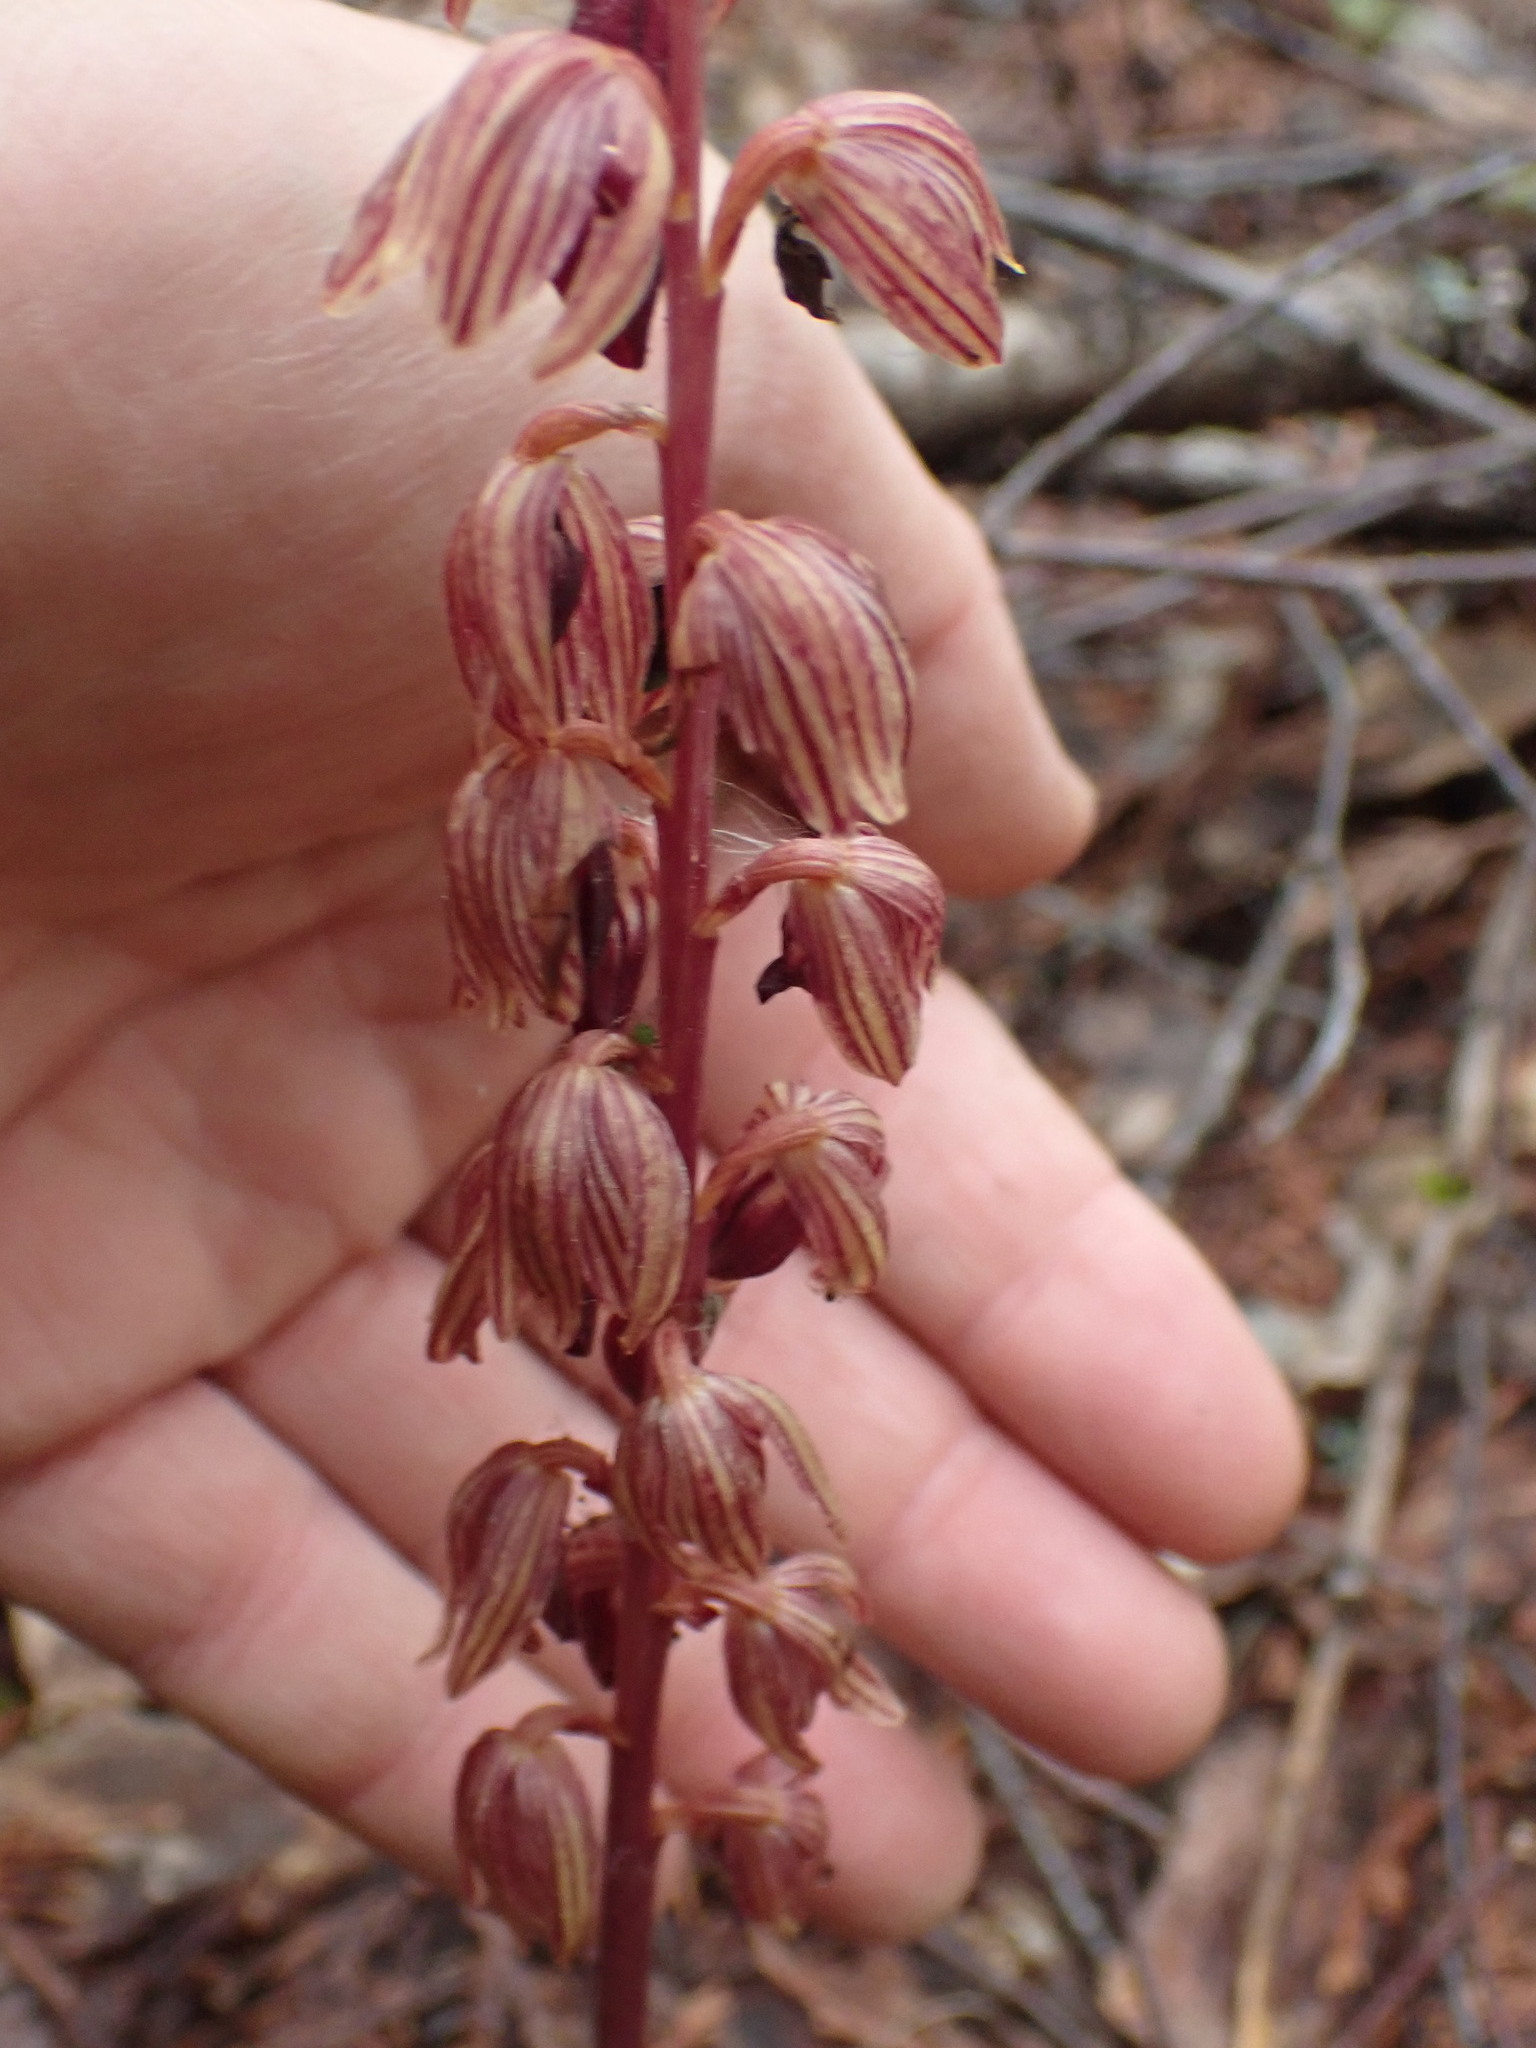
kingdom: Plantae
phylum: Tracheophyta
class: Liliopsida
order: Asparagales
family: Orchidaceae
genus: Corallorhiza
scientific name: Corallorhiza striata
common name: Hooded coralroot
